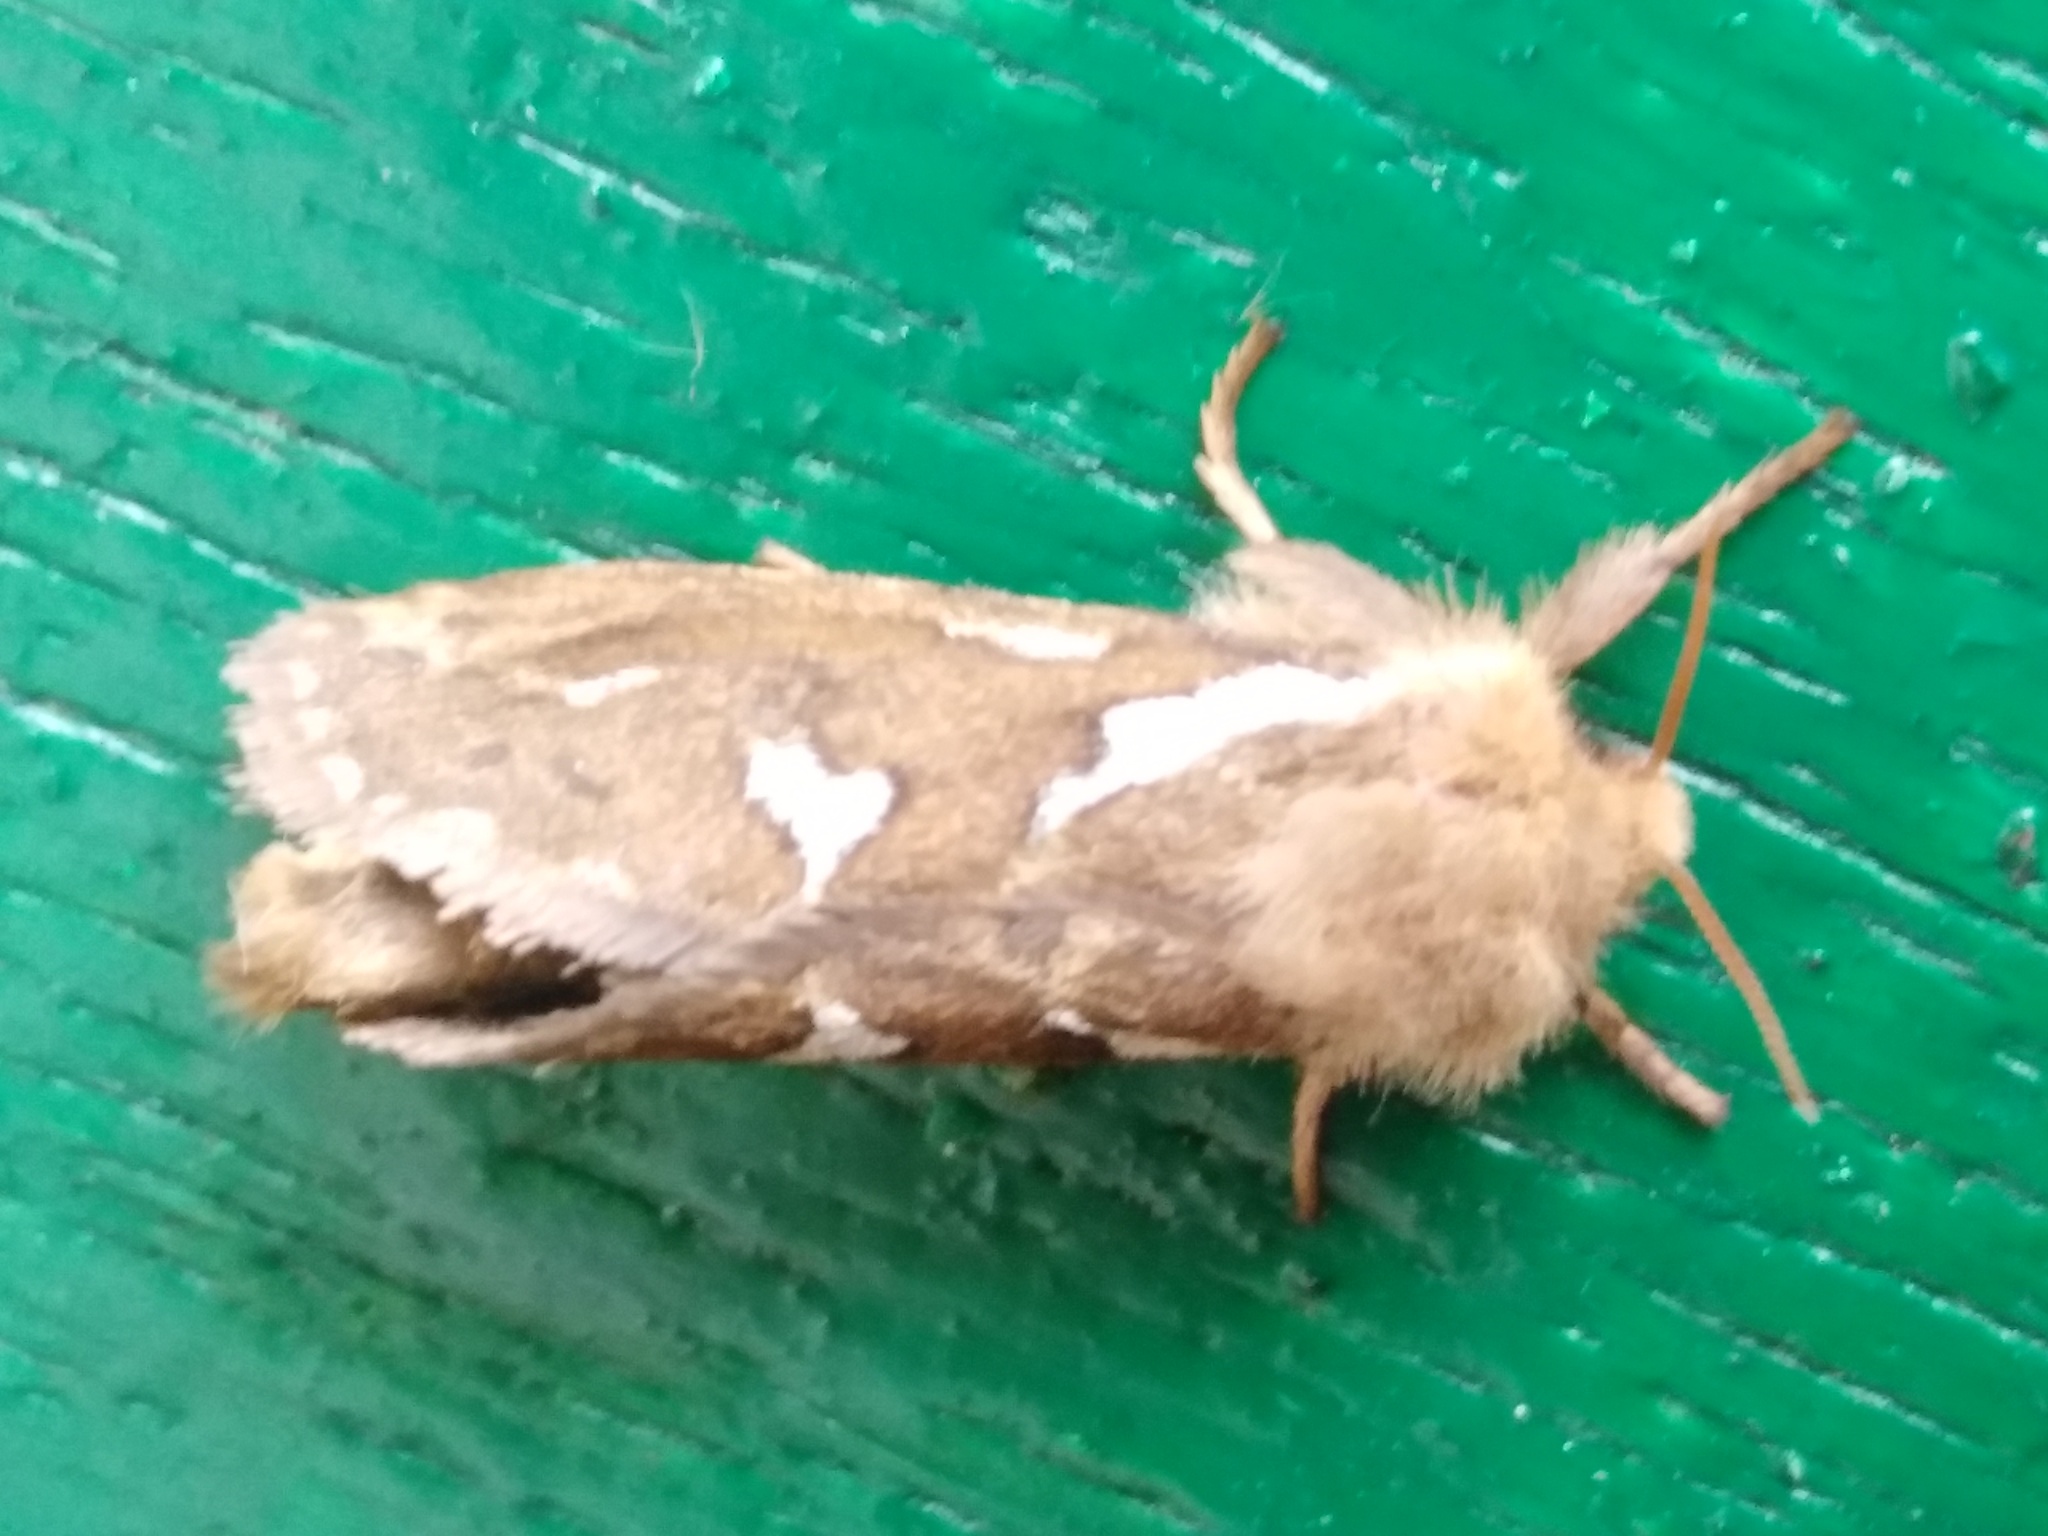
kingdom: Animalia
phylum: Arthropoda
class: Insecta
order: Lepidoptera
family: Hepialidae
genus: Korscheltellus
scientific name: Korscheltellus lupulina
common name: Common swift
